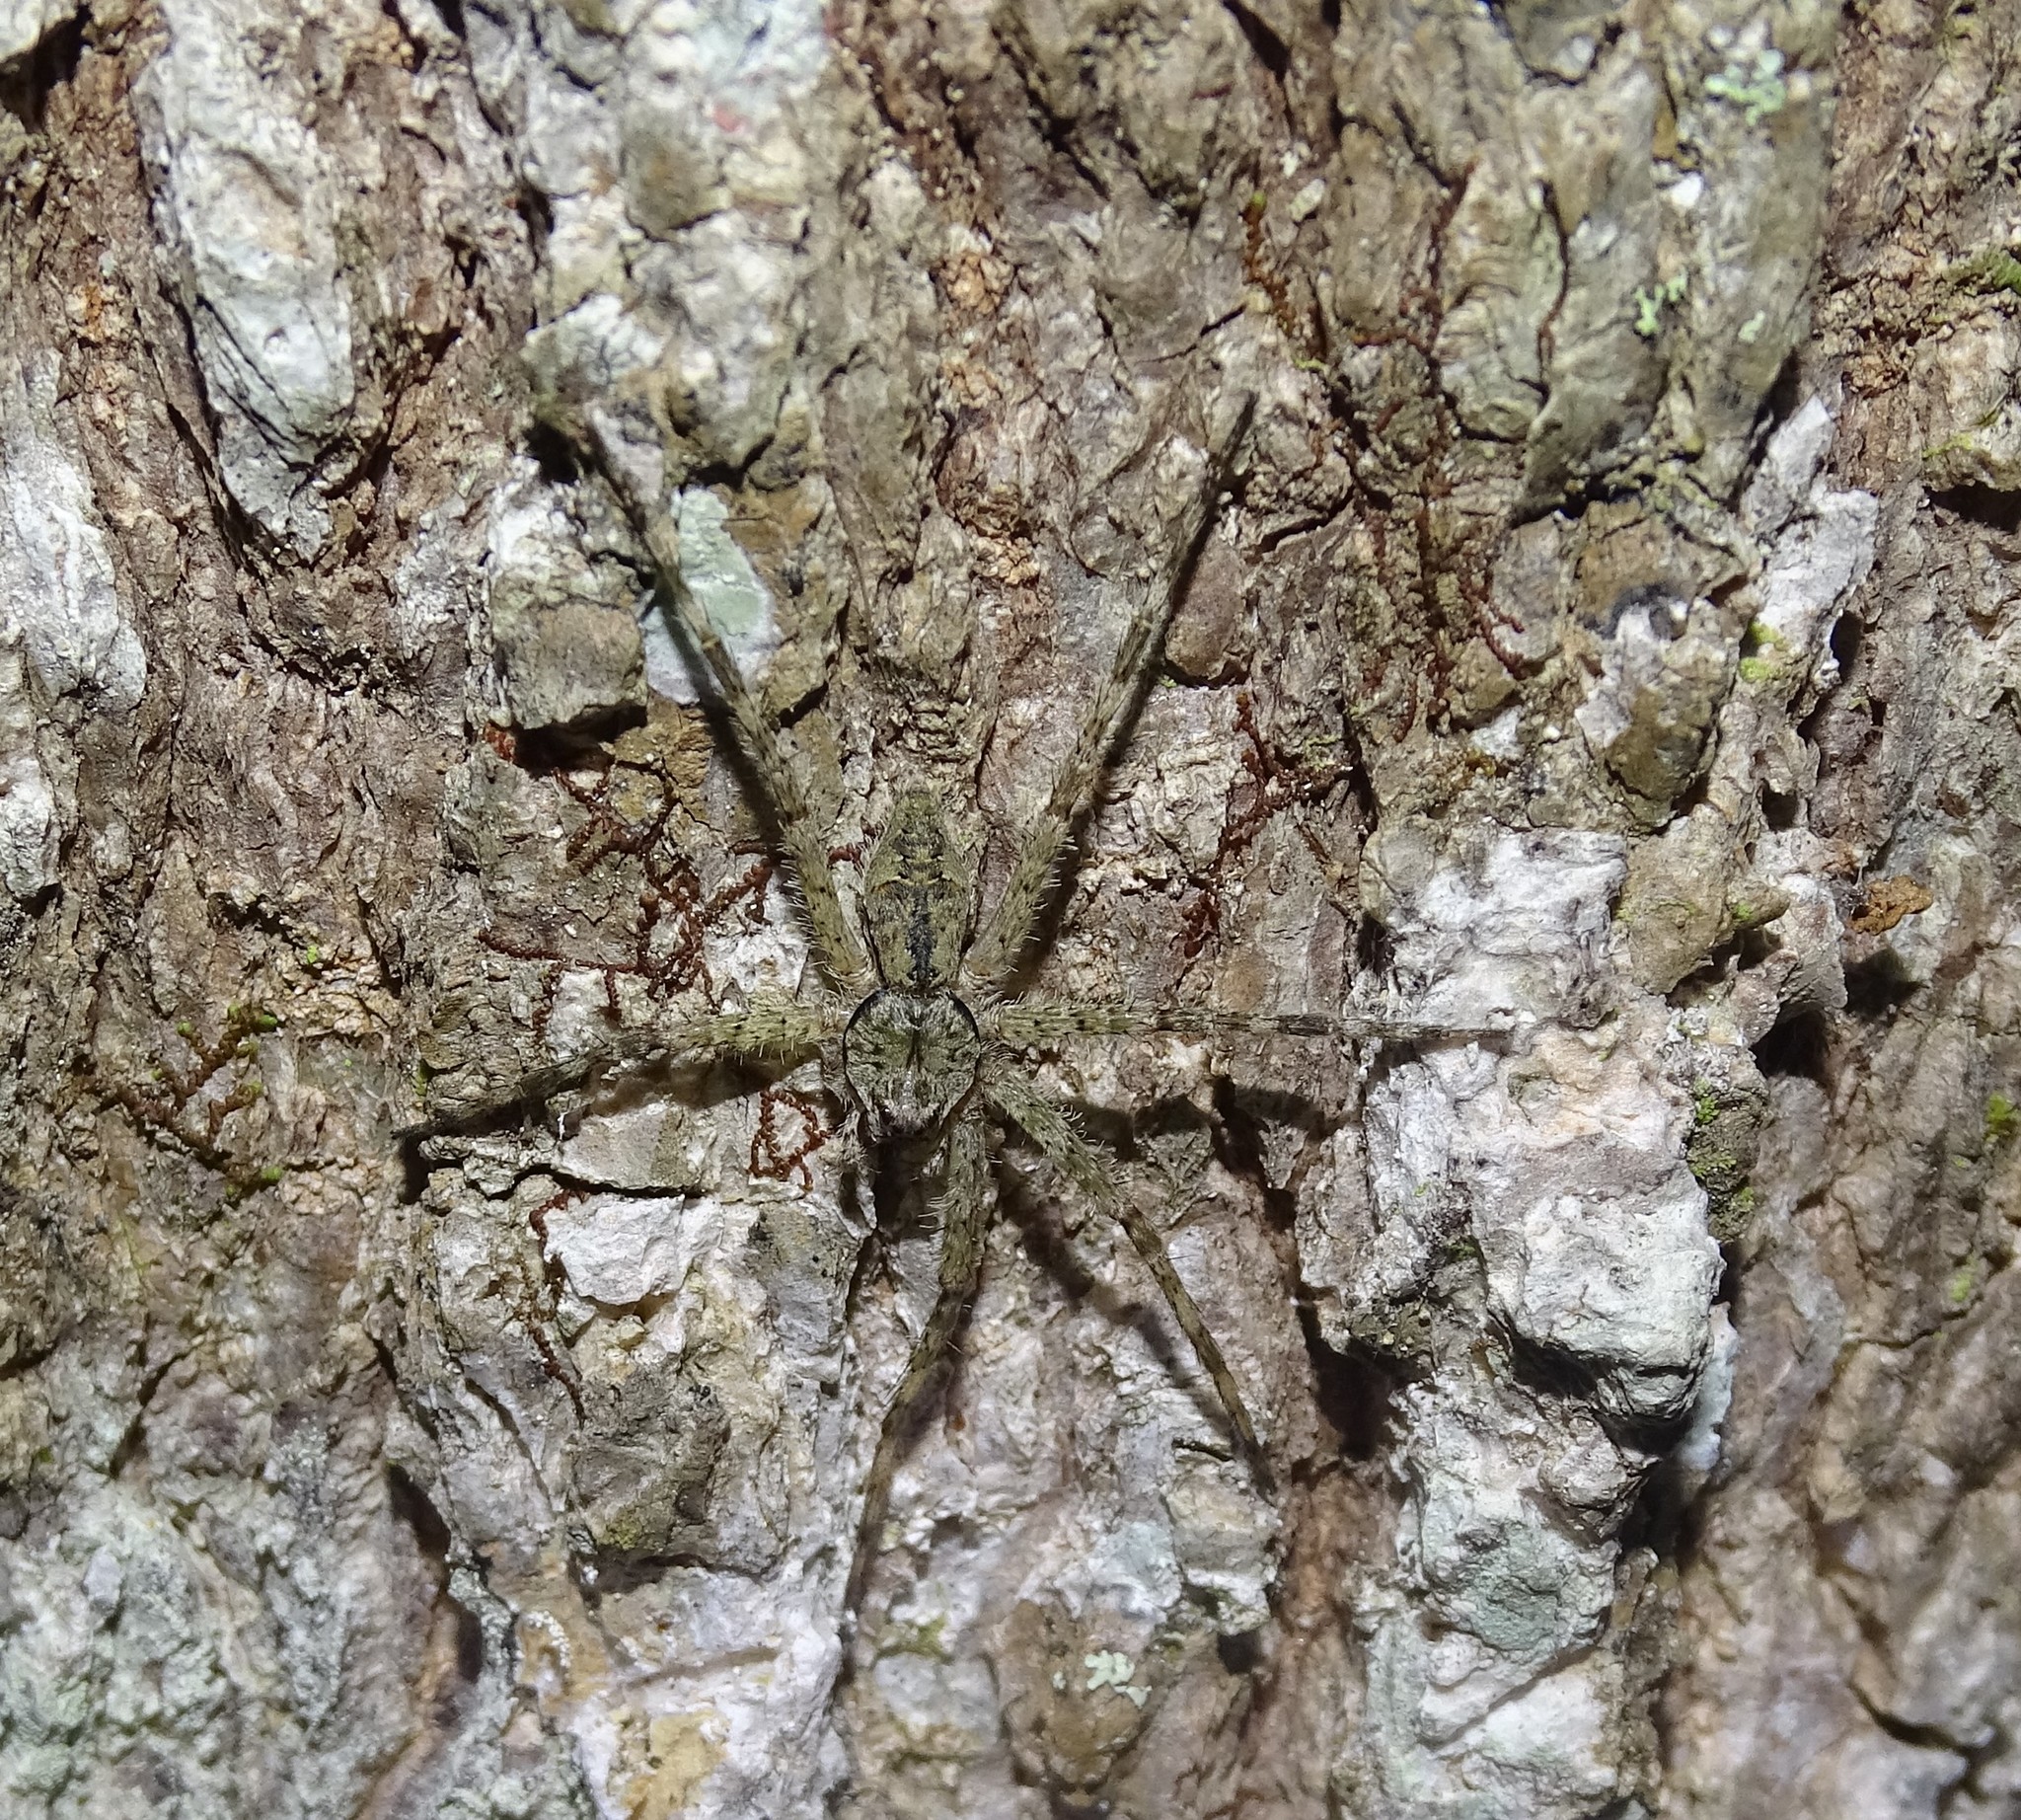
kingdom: Animalia
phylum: Arthropoda
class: Arachnida
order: Araneae
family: Pisauridae
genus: Dolomedes
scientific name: Dolomedes albineus
